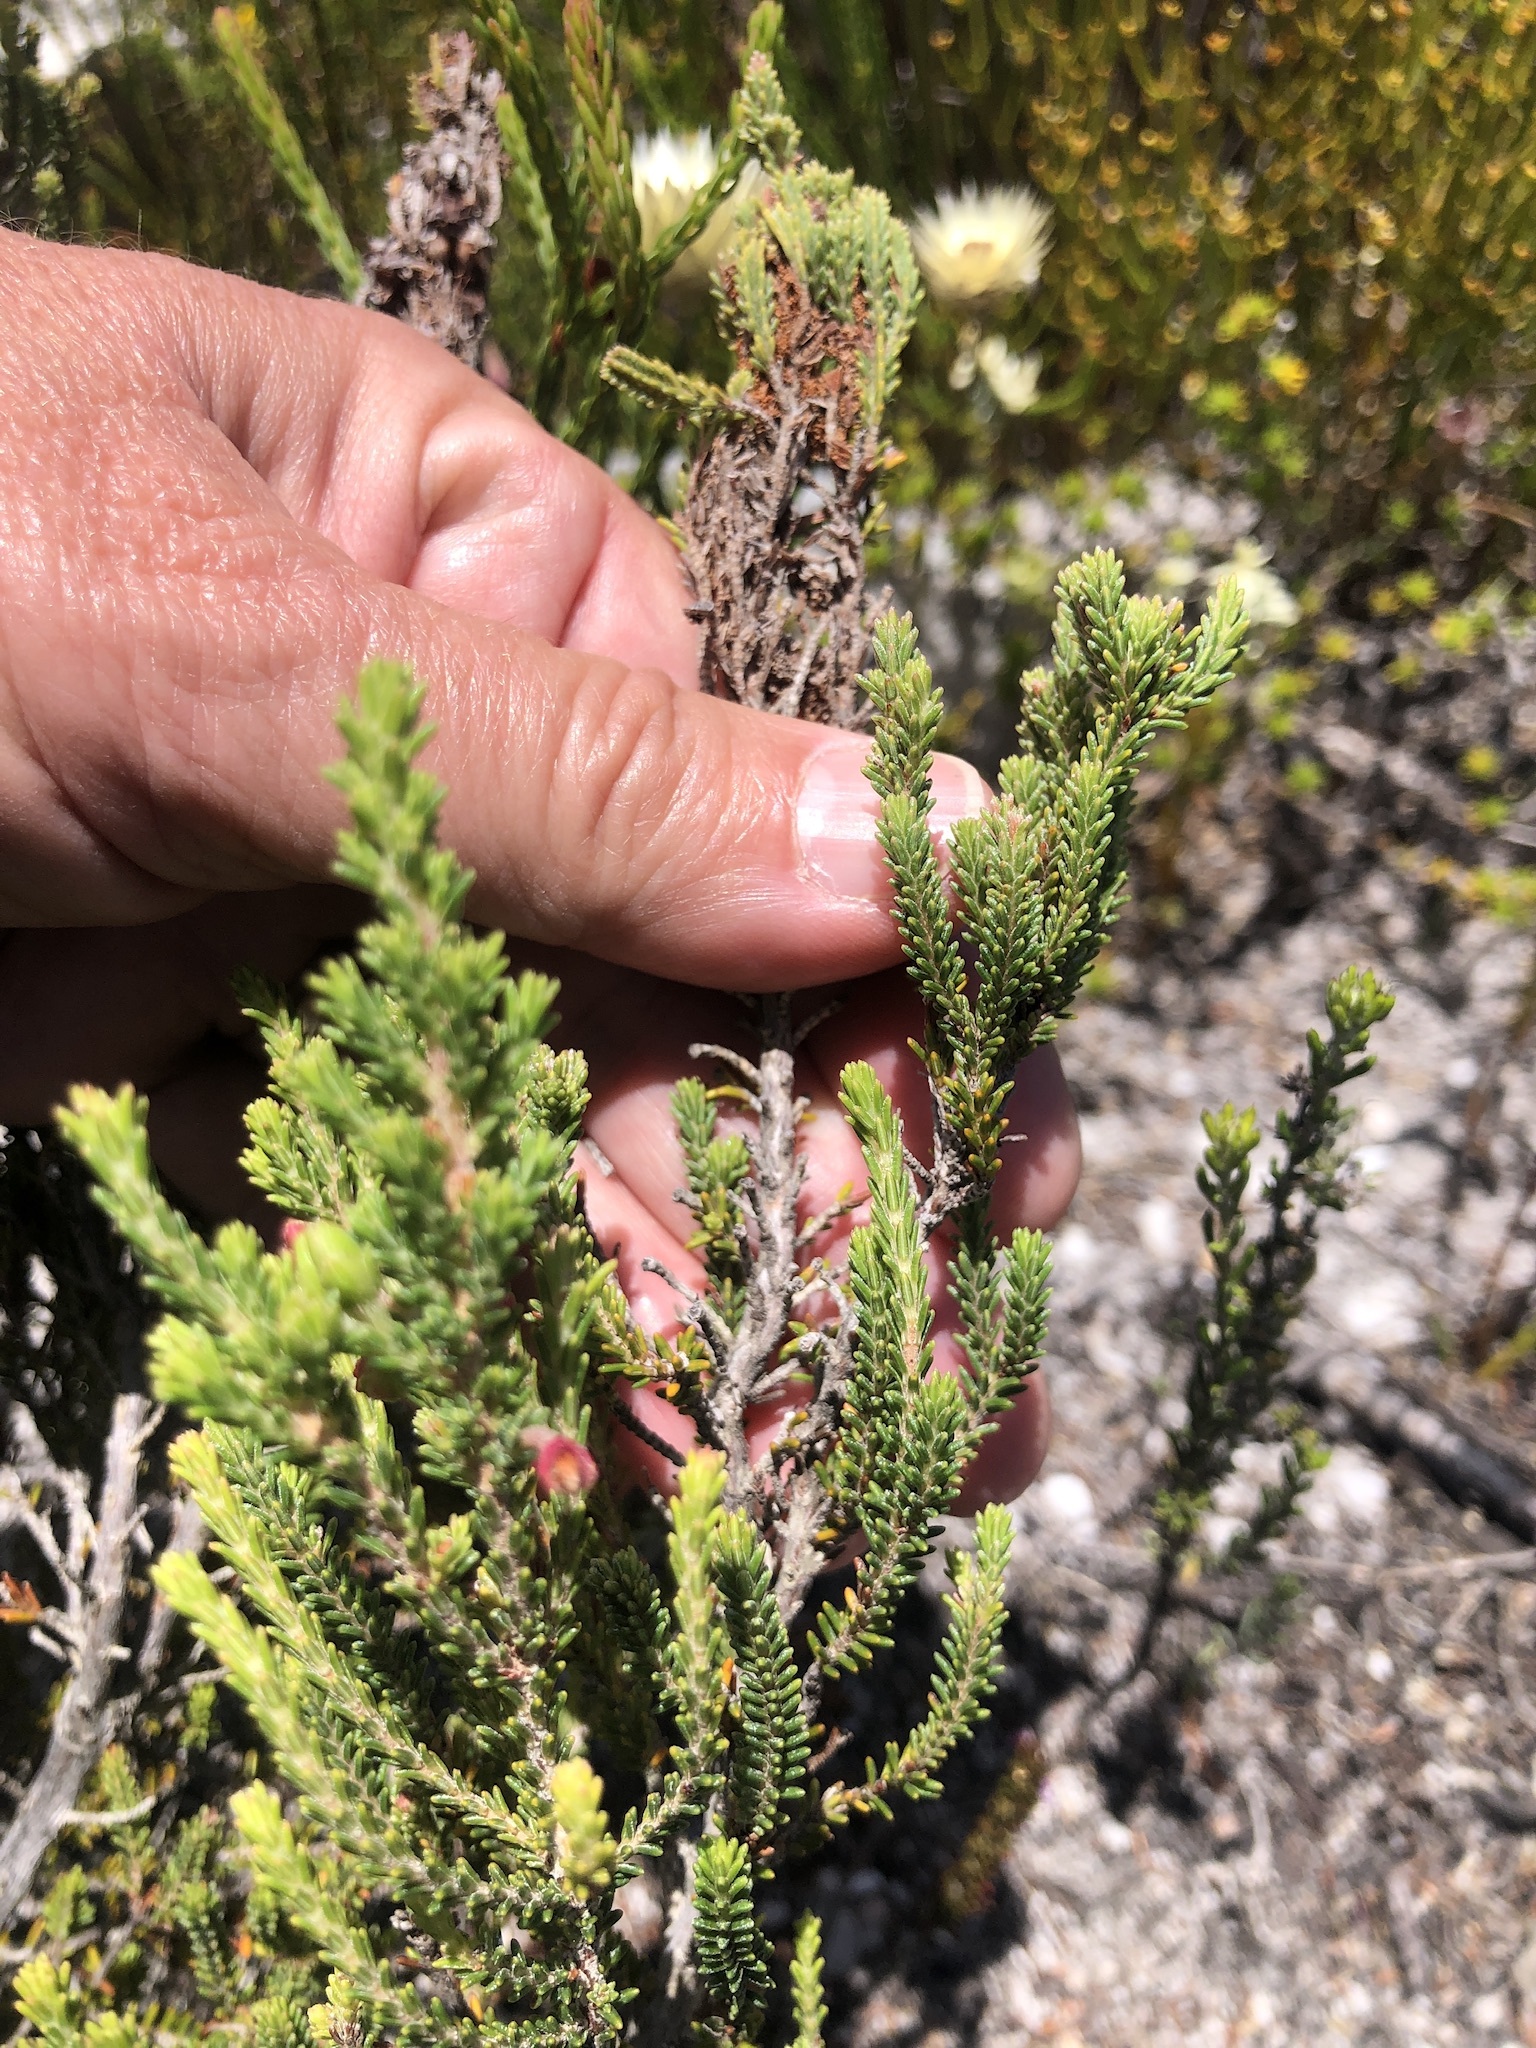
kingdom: Plantae
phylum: Tracheophyta
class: Magnoliopsida
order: Ericales
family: Ericaceae
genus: Erica
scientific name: Erica monadelphia
